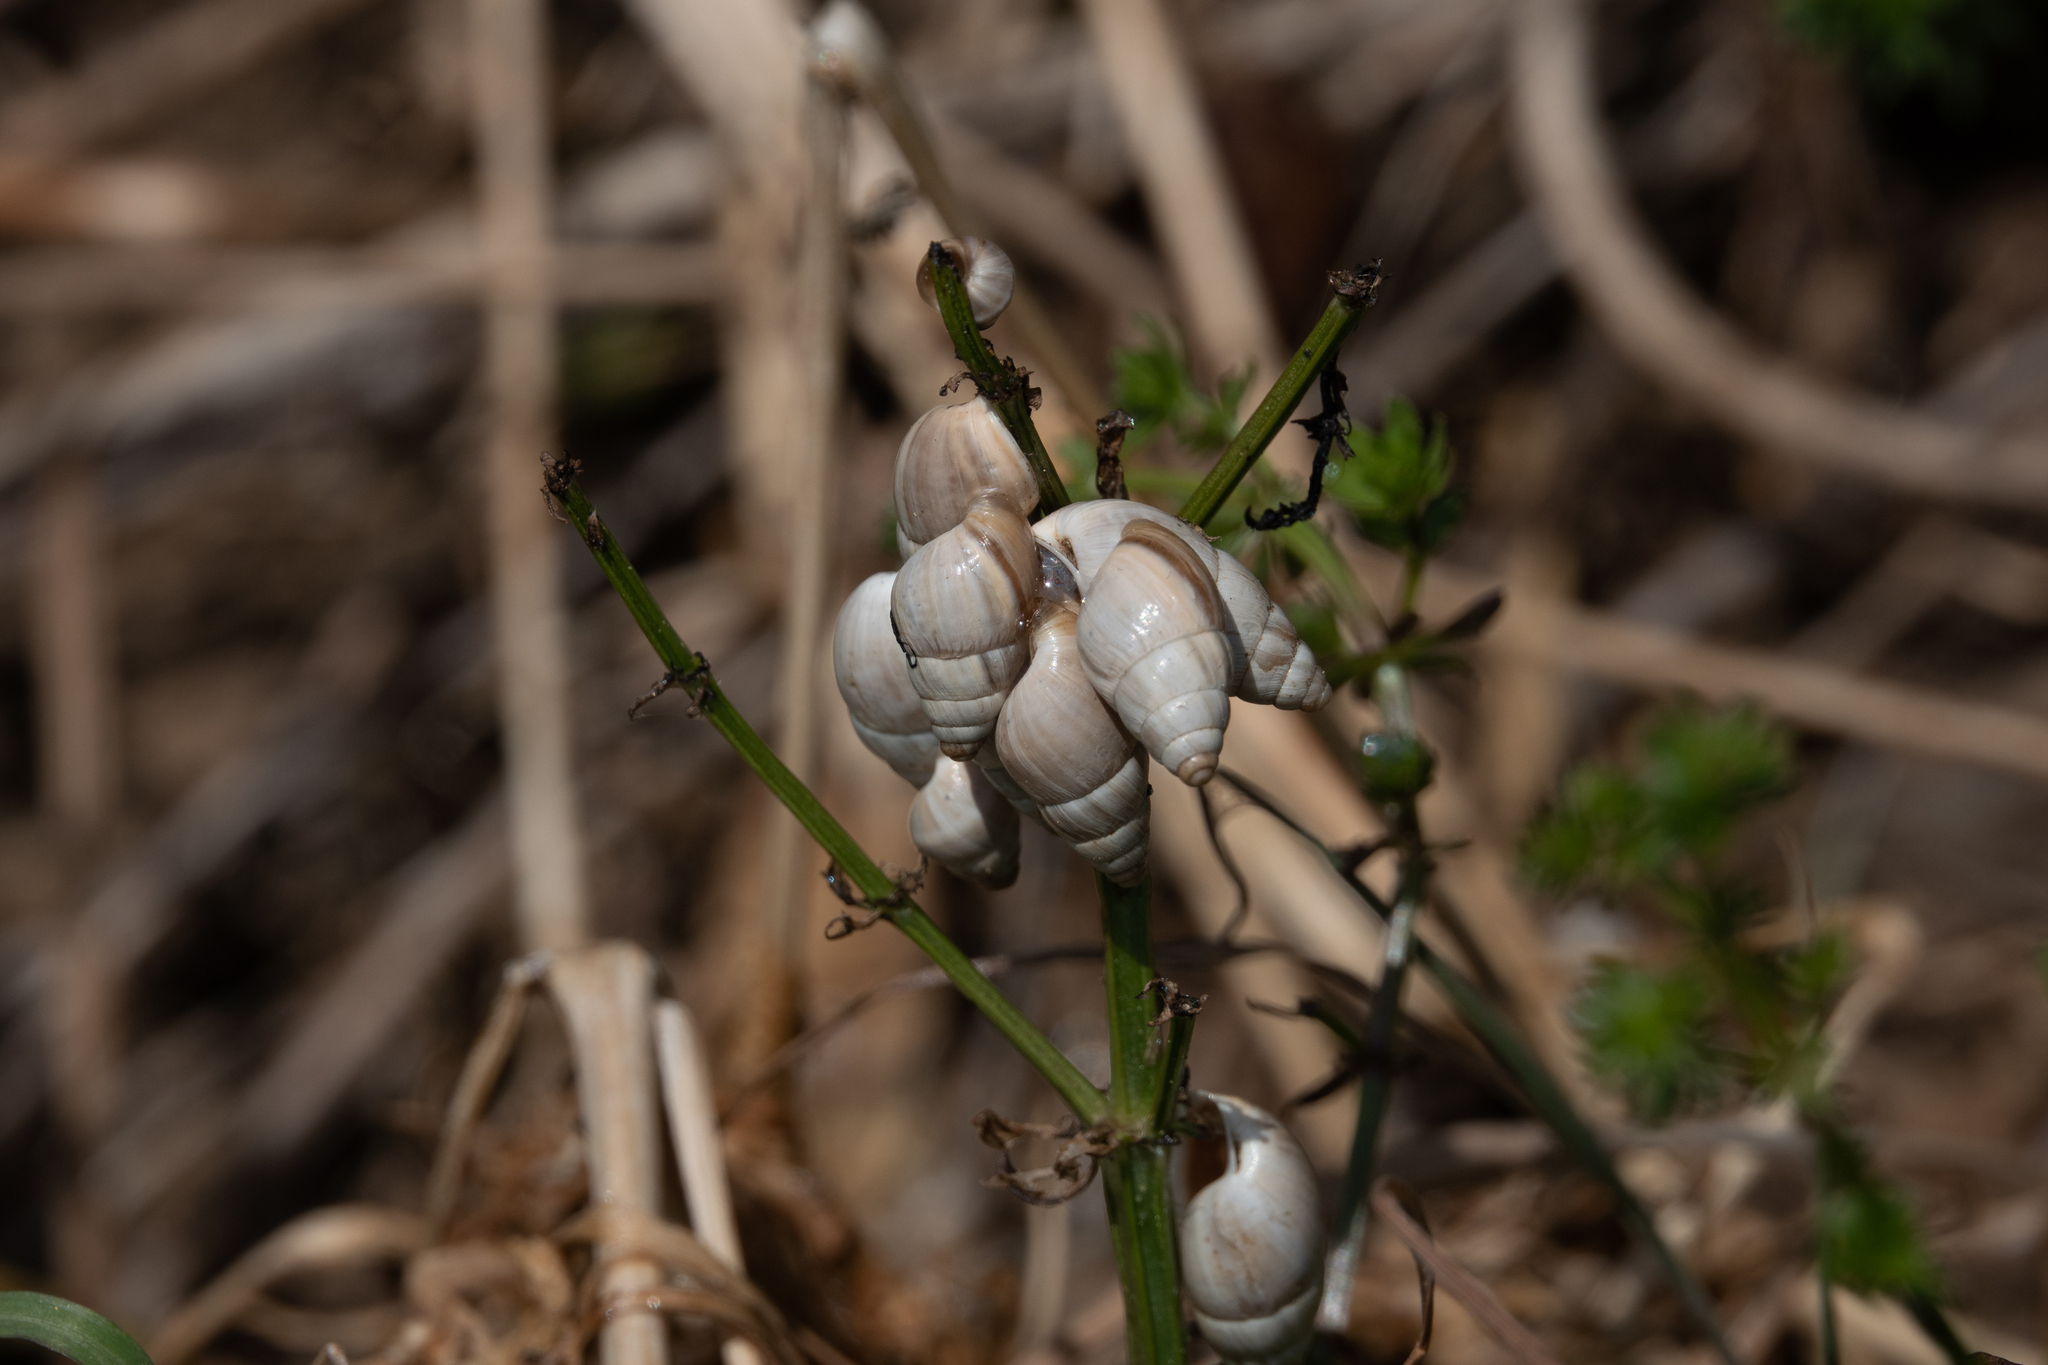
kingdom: Animalia
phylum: Mollusca
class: Gastropoda
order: Stylommatophora
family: Enidae
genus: Zebrina
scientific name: Zebrina detrita
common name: Large bulin
